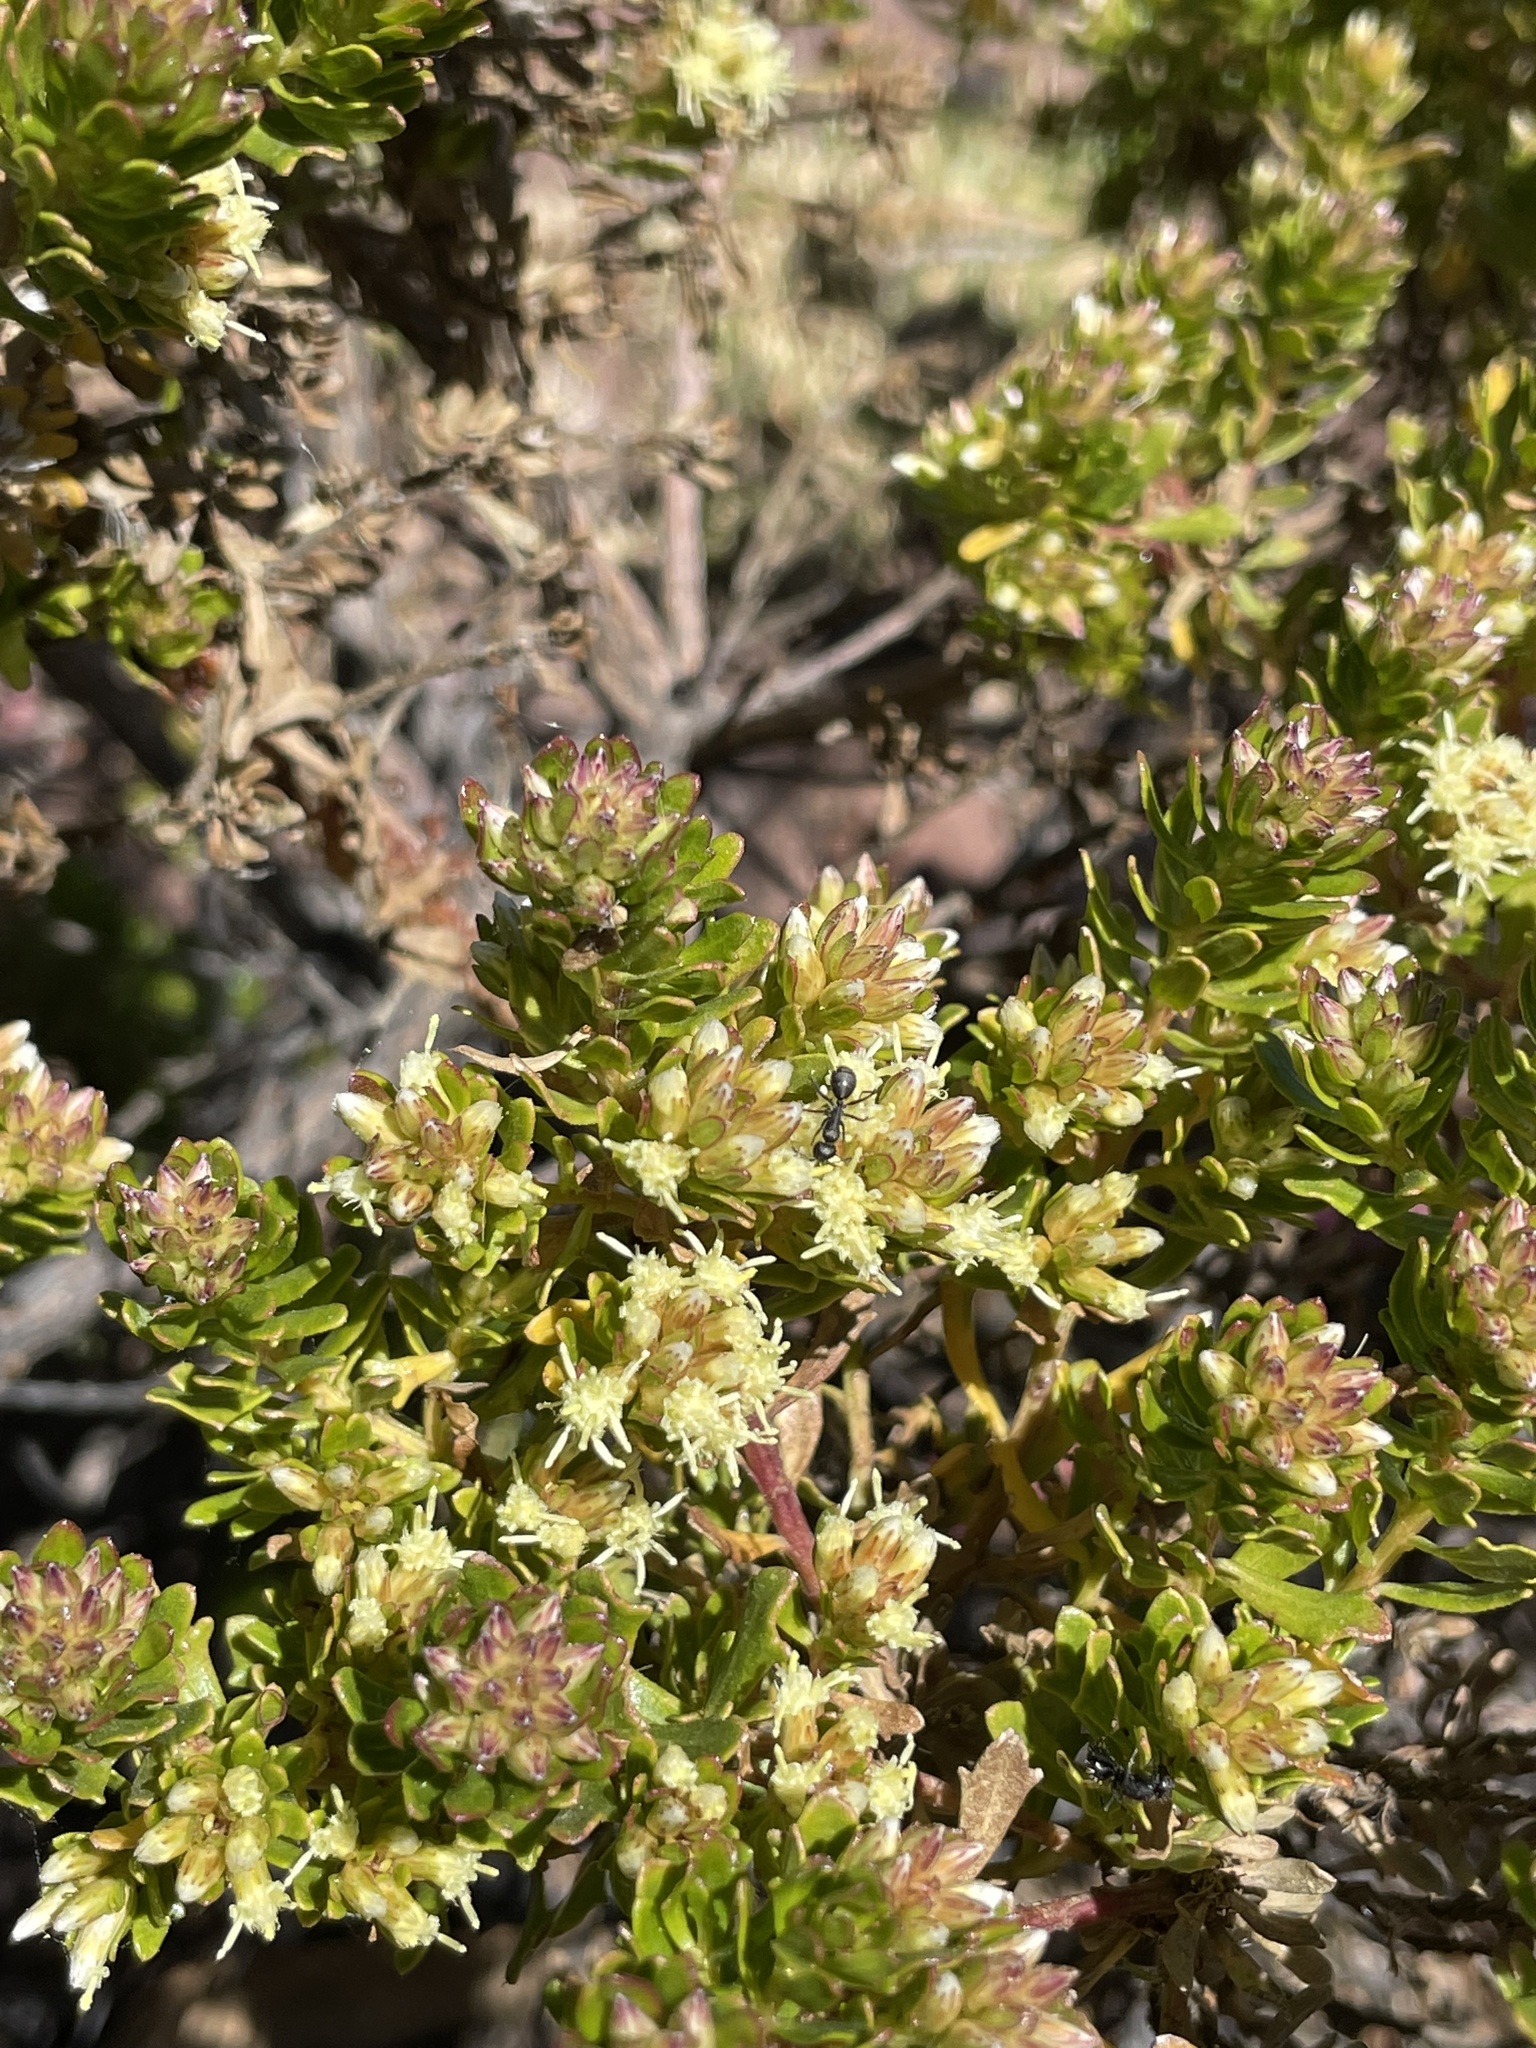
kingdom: Plantae
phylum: Tracheophyta
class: Magnoliopsida
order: Asterales
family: Asteraceae
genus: Baccharis
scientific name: Baccharis buxifolia
